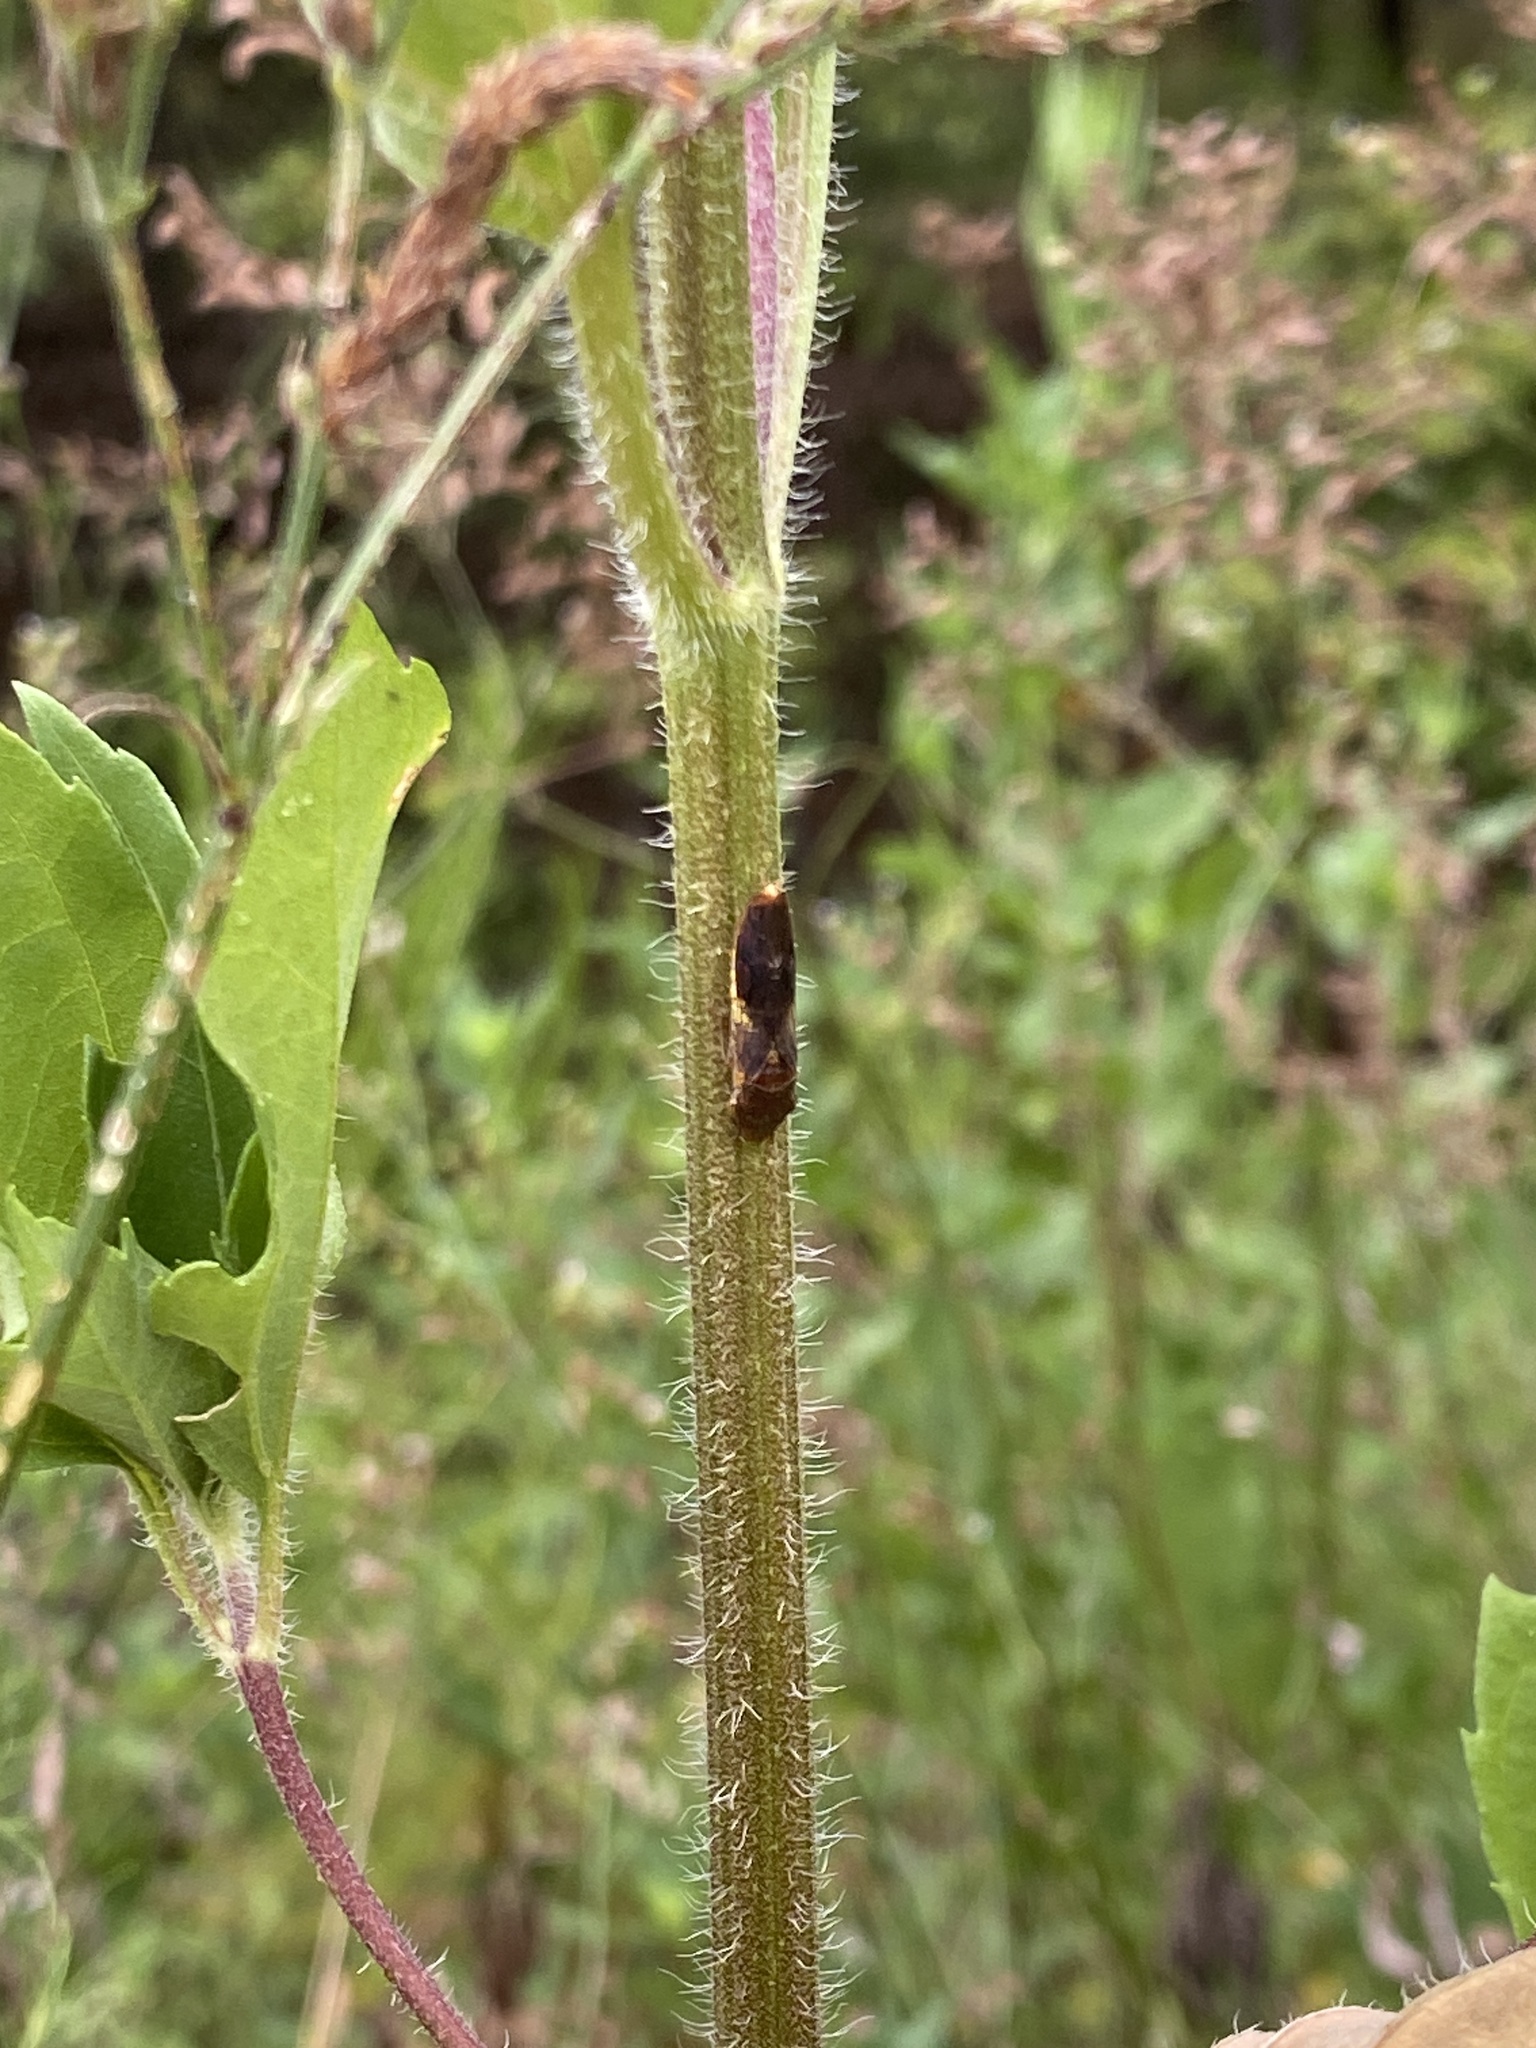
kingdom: Animalia
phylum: Arthropoda
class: Insecta
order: Hemiptera
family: Cicadellidae
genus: Homalodisca
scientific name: Homalodisca vitripennis
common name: Glassy-winged sharpshooter
